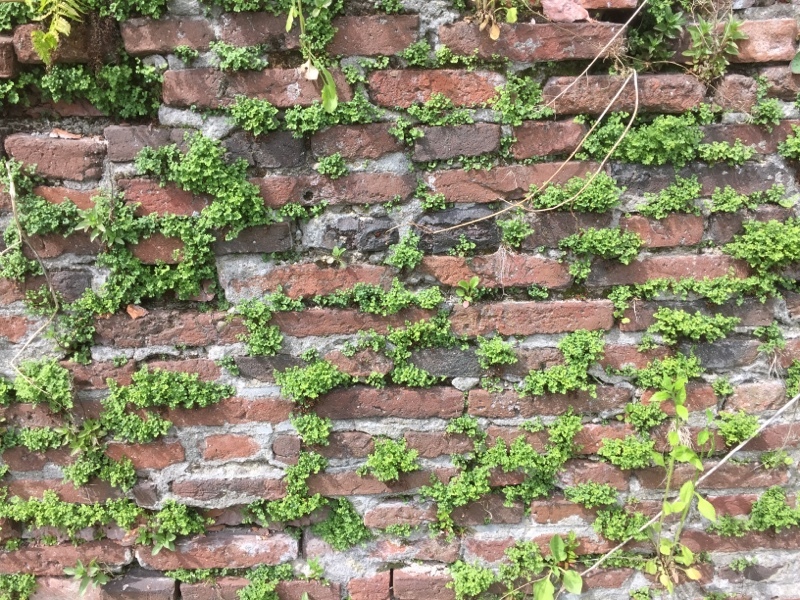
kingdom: Plantae
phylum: Tracheophyta
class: Polypodiopsida
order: Polypodiales
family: Aspleniaceae
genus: Asplenium
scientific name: Asplenium ruta-muraria
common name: Wall-rue
